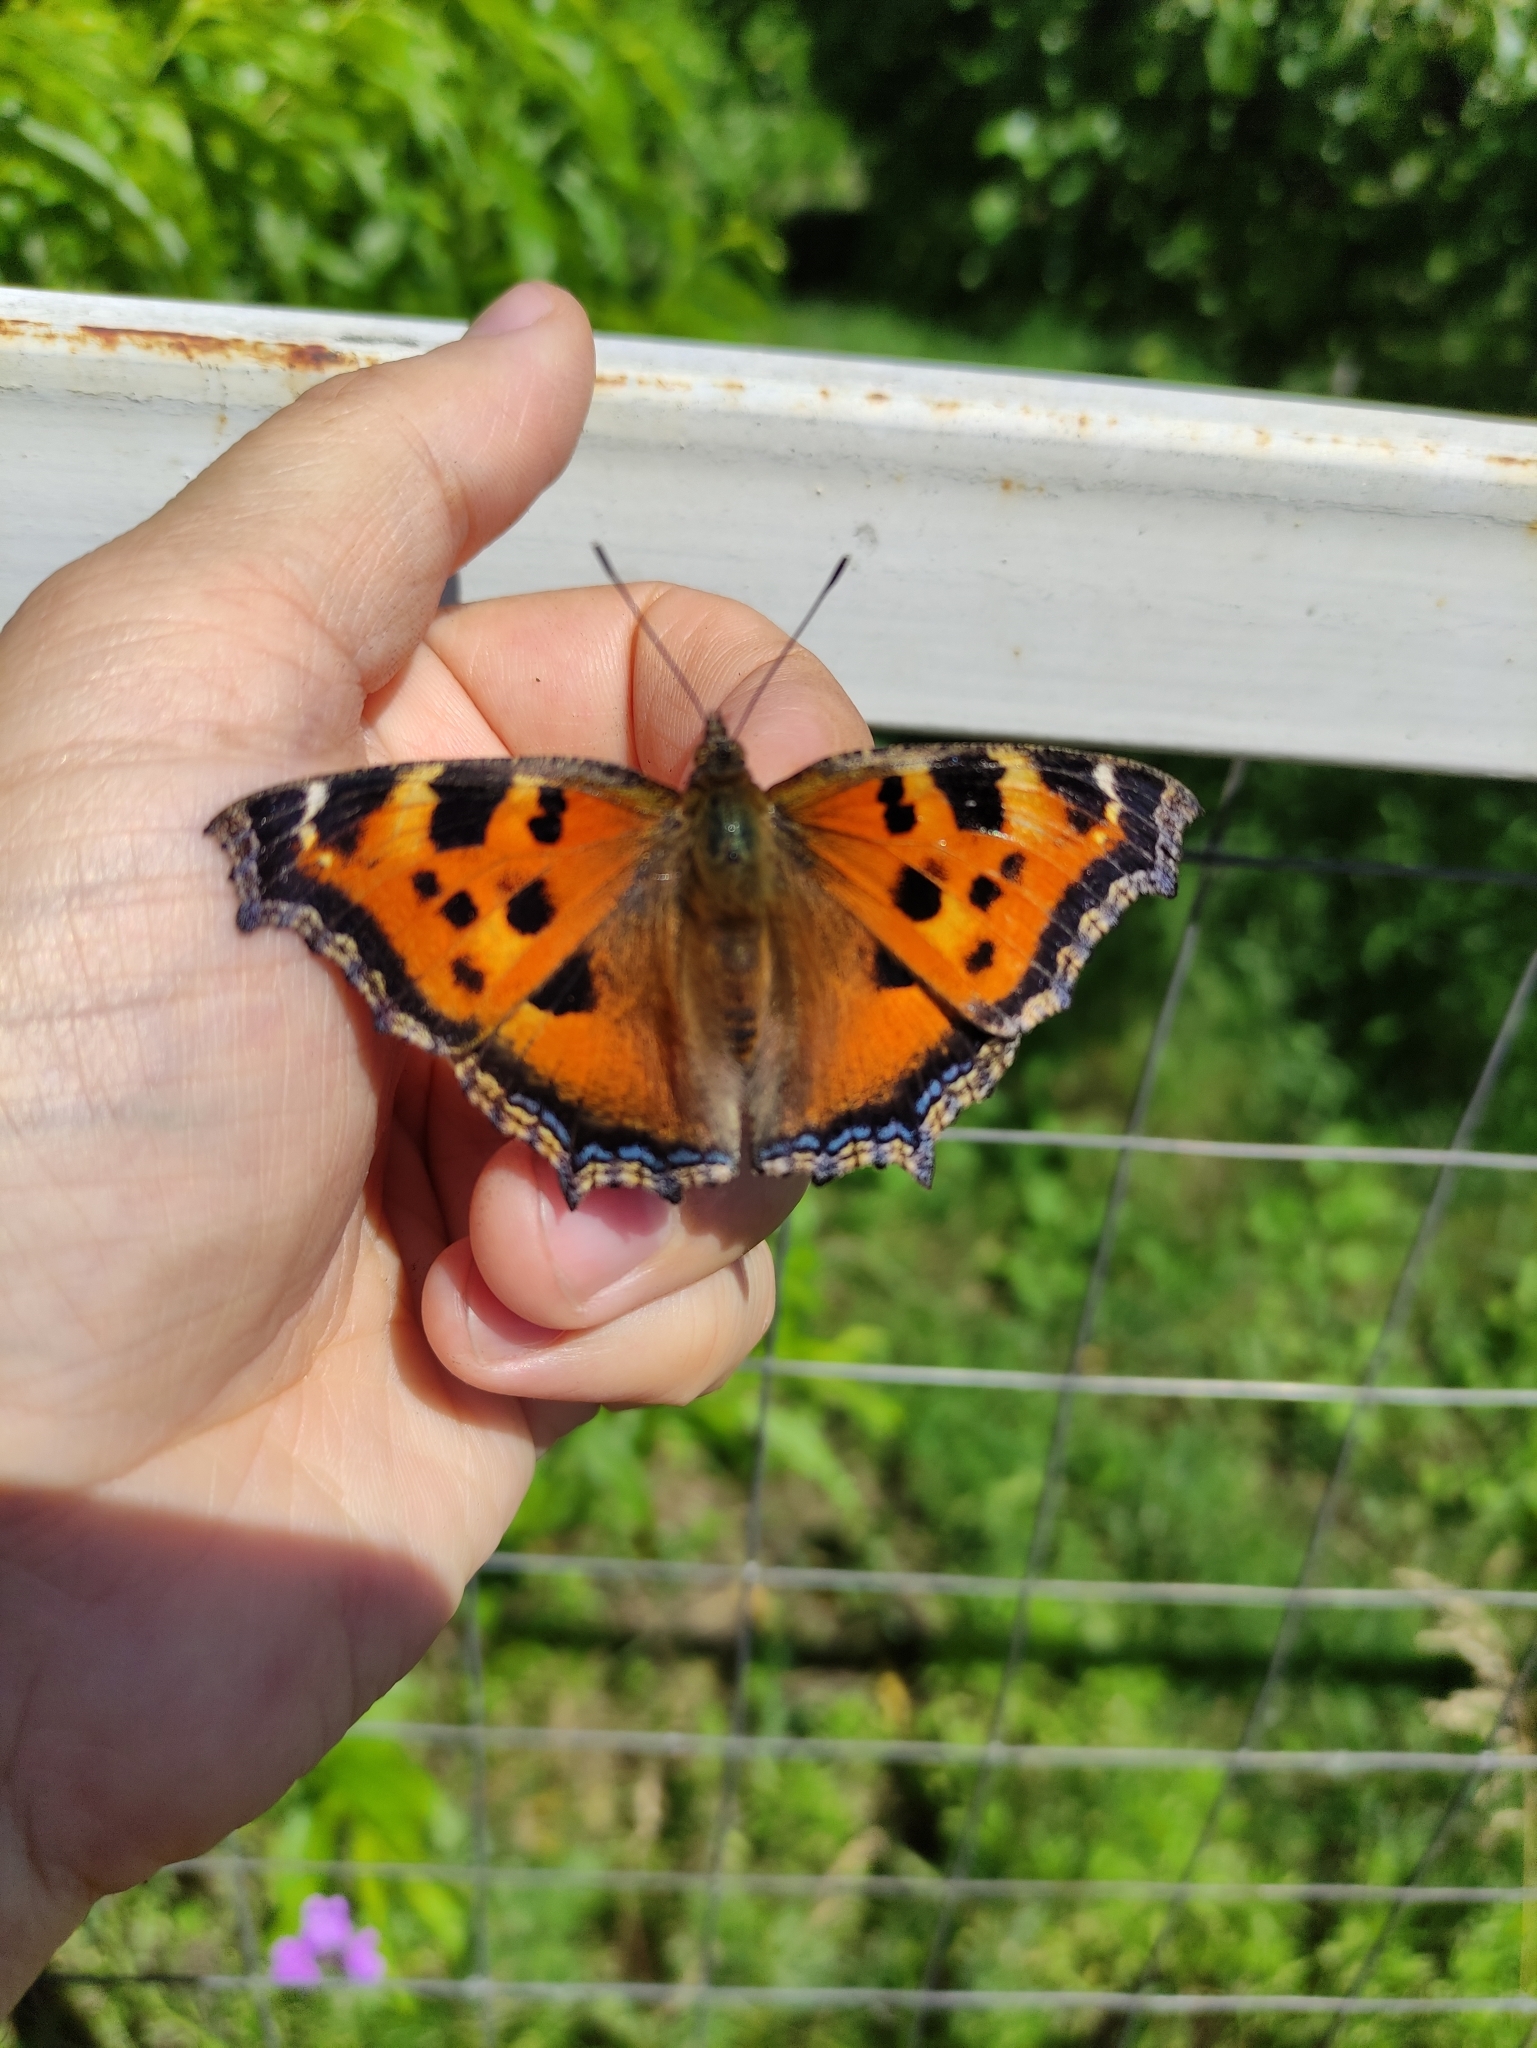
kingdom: Animalia
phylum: Arthropoda
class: Insecta
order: Lepidoptera
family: Nymphalidae
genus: Nymphalis
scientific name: Nymphalis xanthomelas
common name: Scarce tortoiseshell
